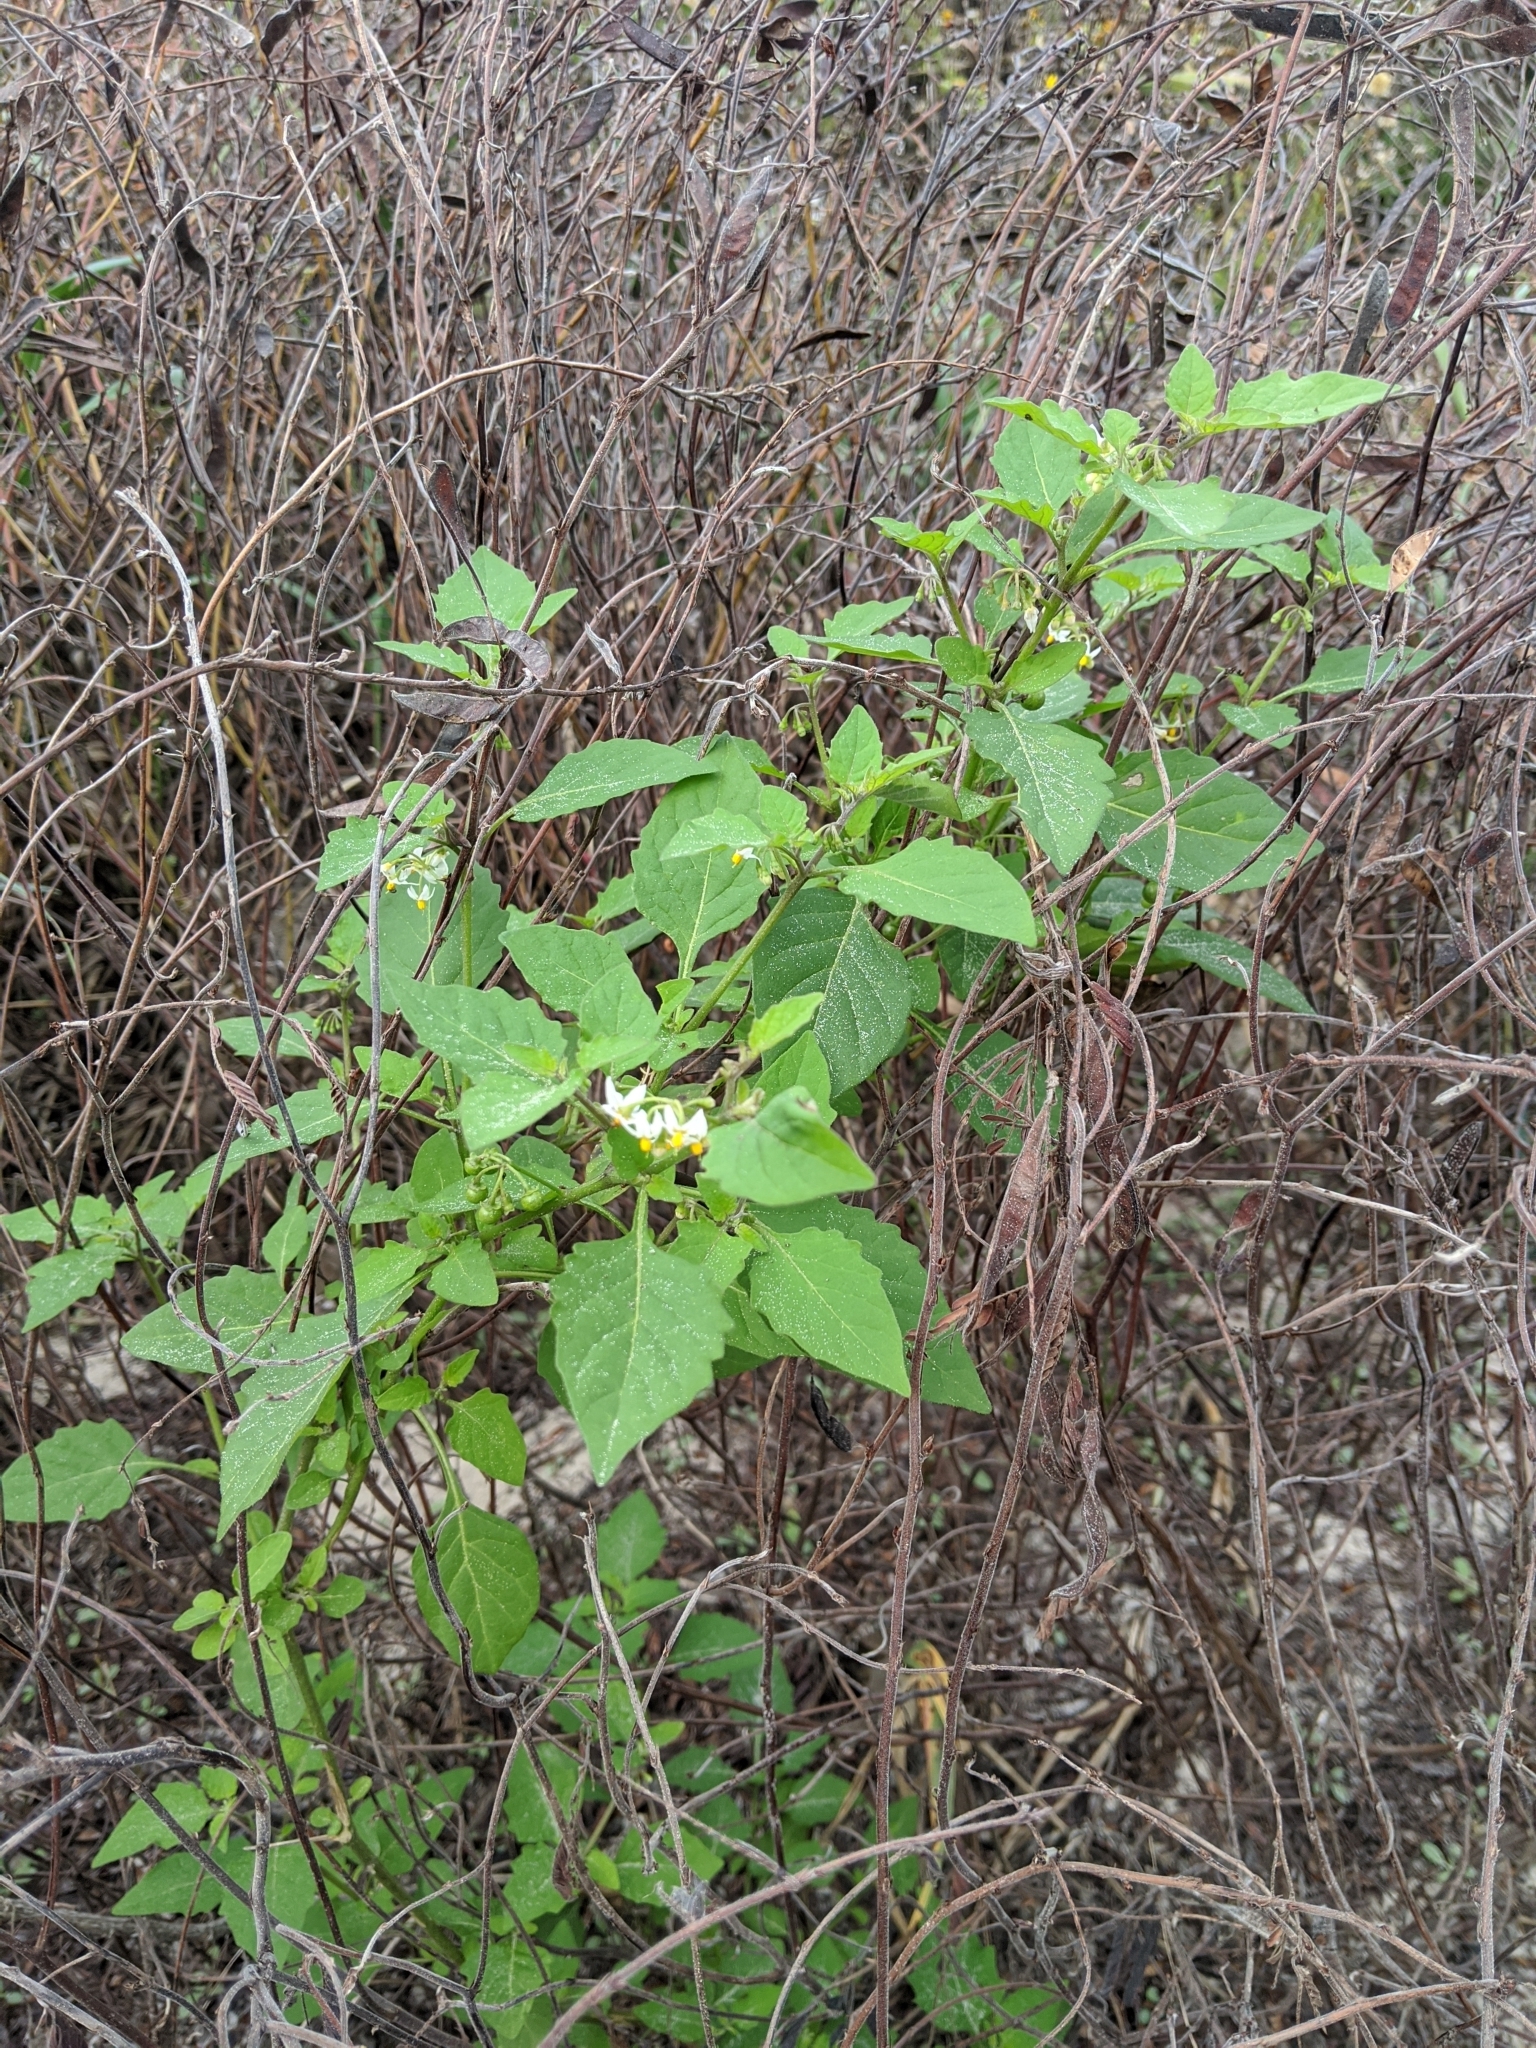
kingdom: Plantae
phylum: Tracheophyta
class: Magnoliopsida
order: Solanales
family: Solanaceae
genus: Solanum
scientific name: Solanum americanum
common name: American black nightshade
